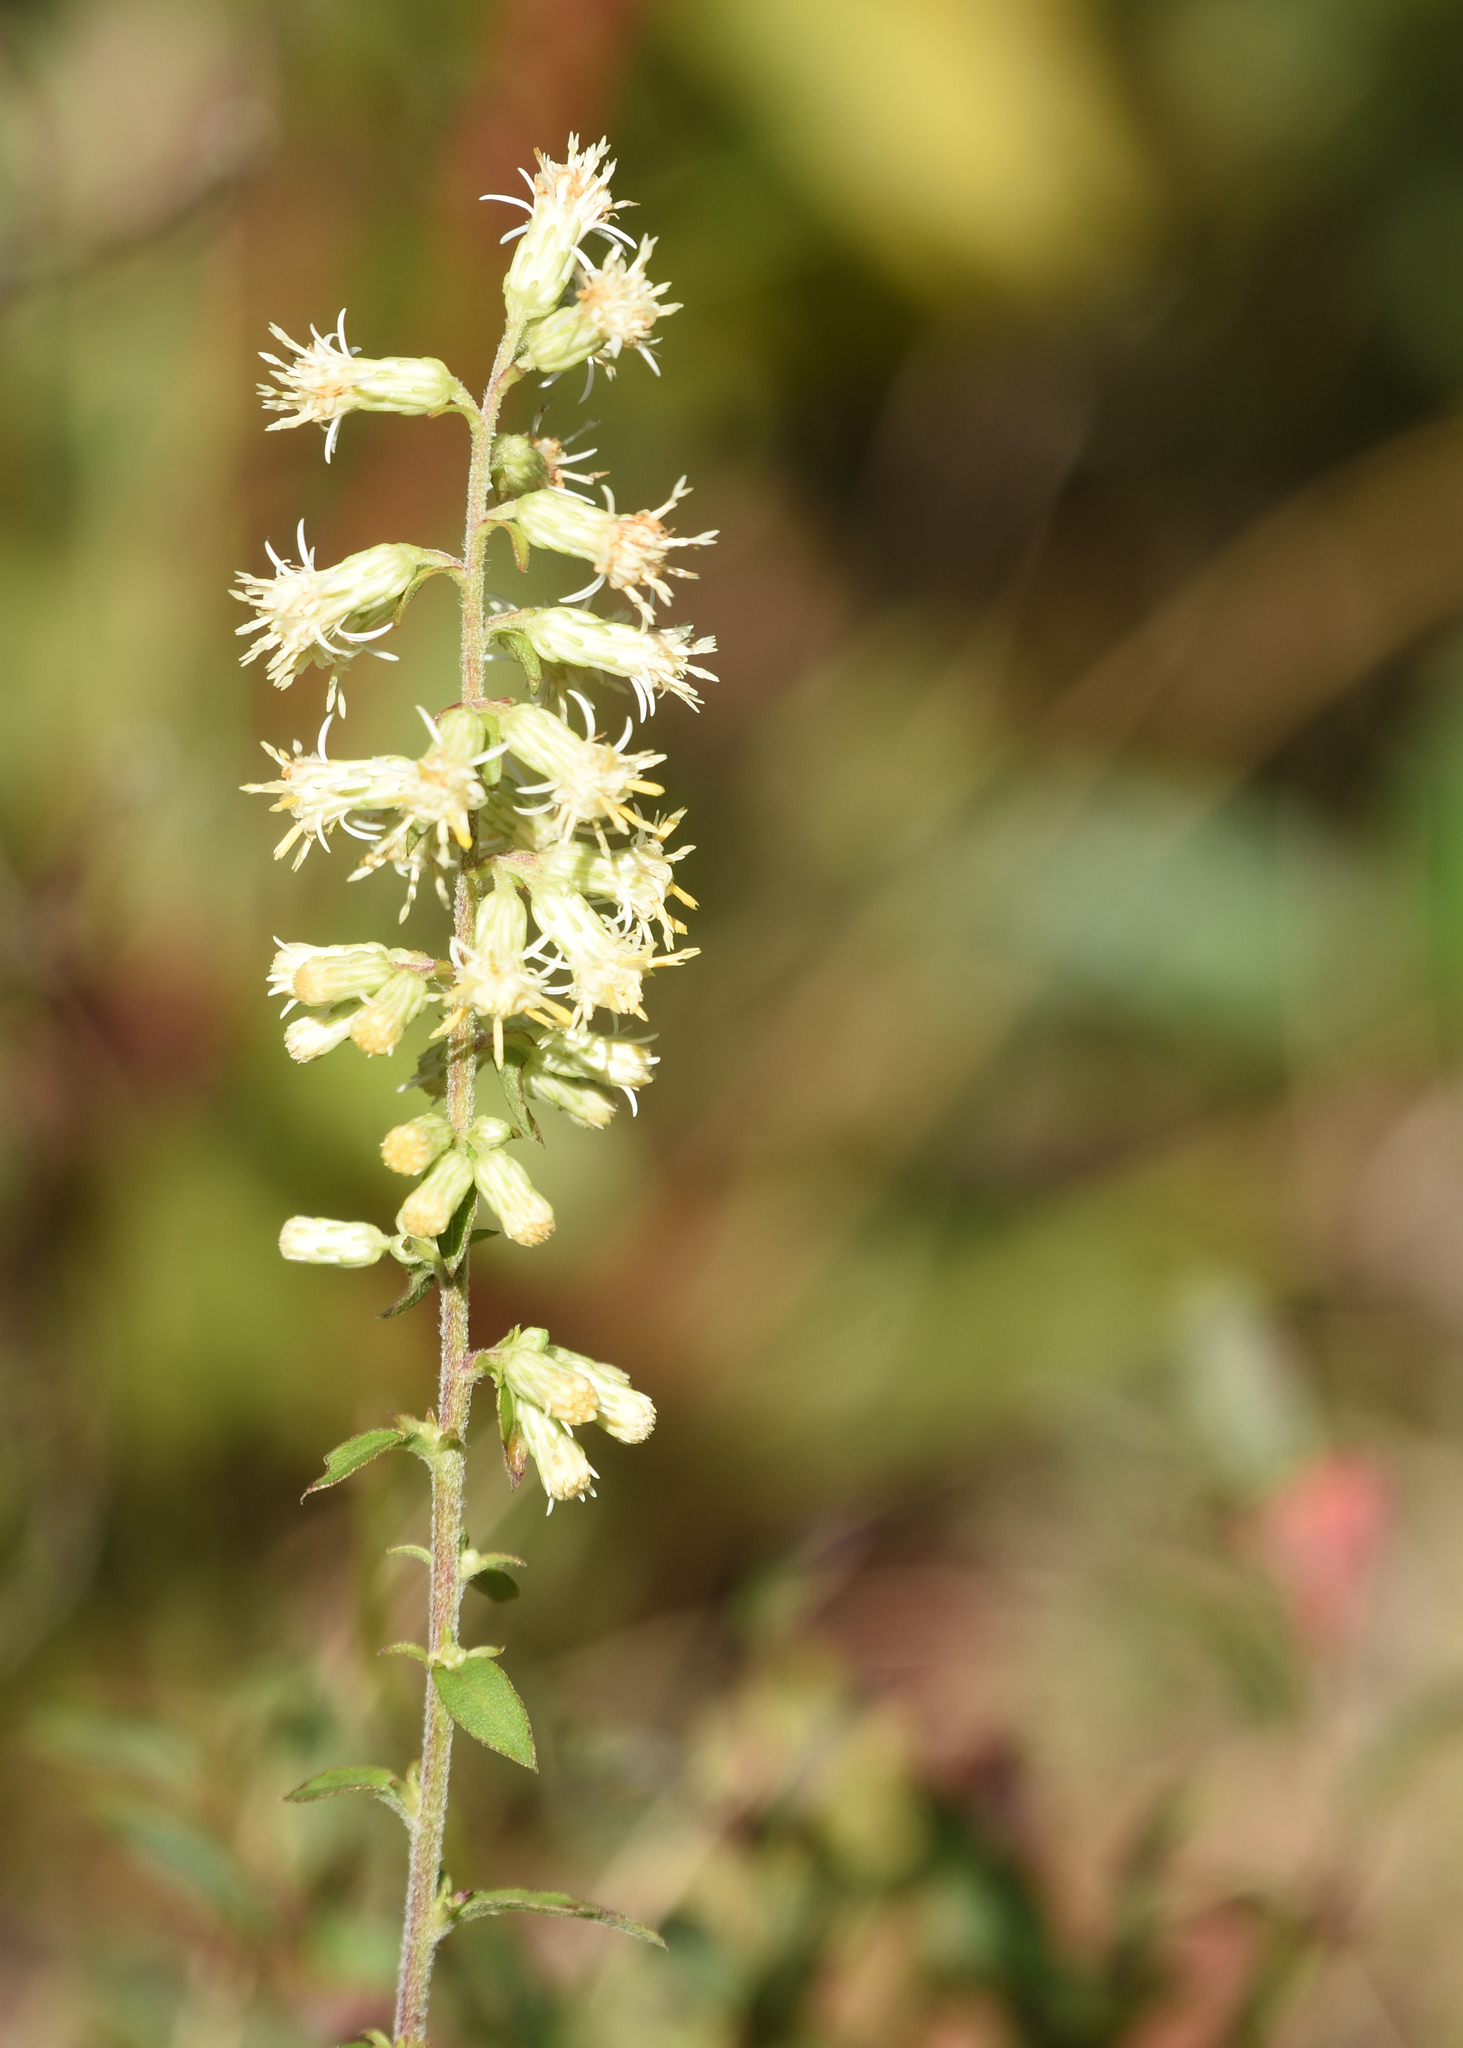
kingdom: Plantae
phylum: Tracheophyta
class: Magnoliopsida
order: Asterales
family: Asteraceae
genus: Solidago
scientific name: Solidago bicolor
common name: Silverrod
